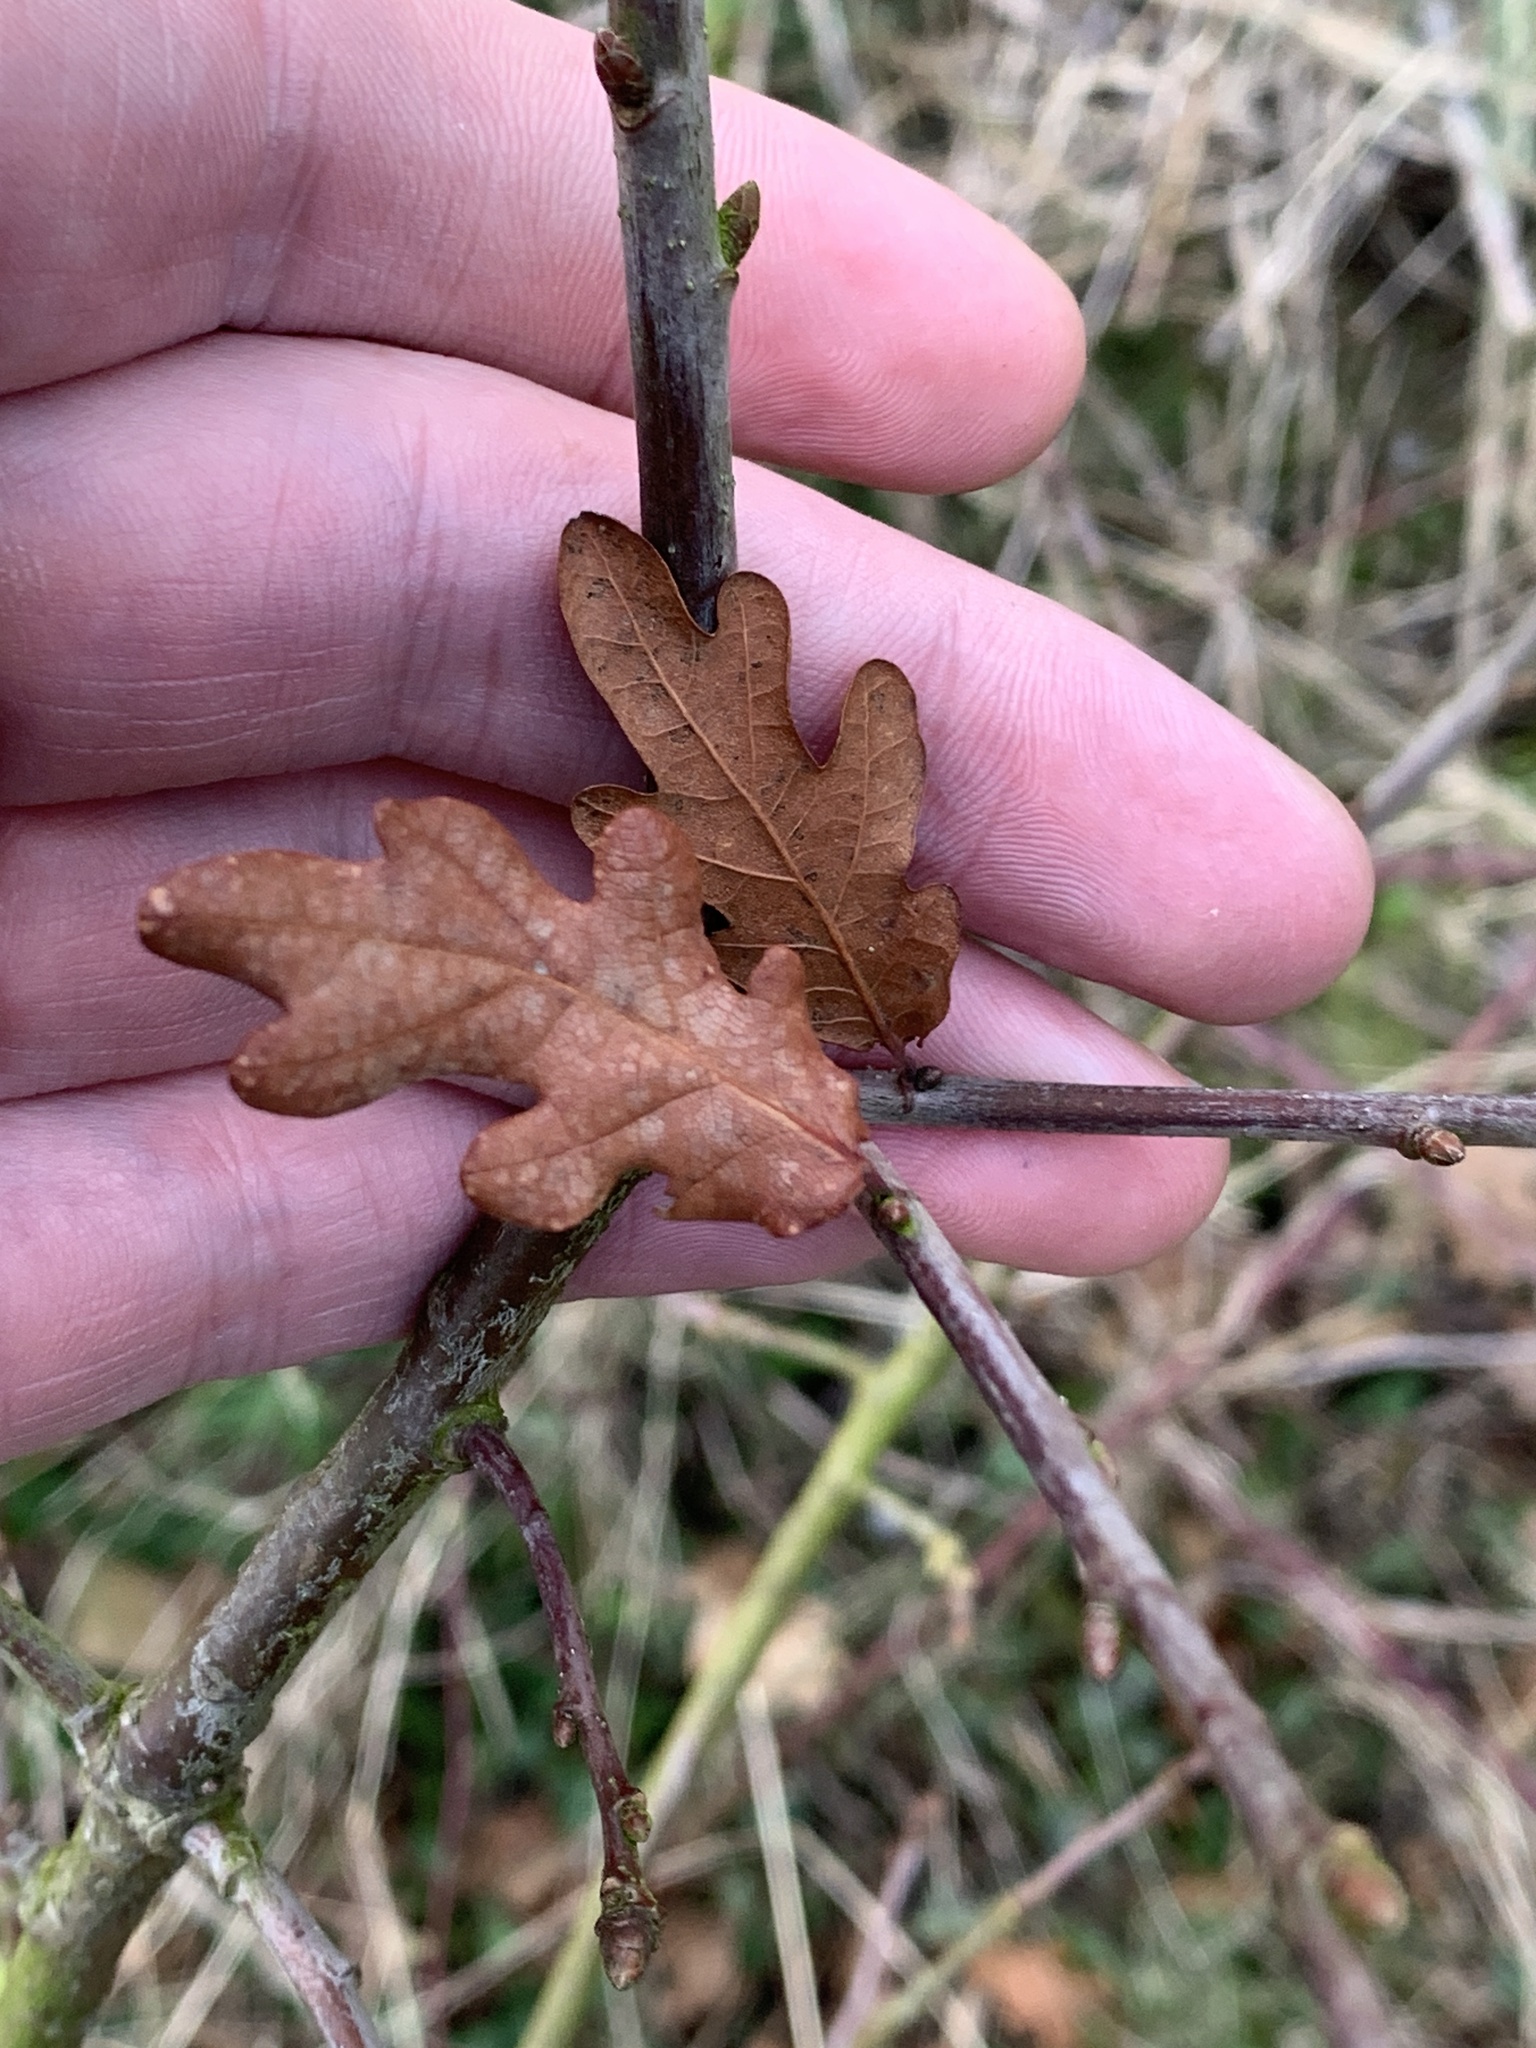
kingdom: Plantae
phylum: Tracheophyta
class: Magnoliopsida
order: Fagales
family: Fagaceae
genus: Quercus
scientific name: Quercus robur
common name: Pedunculate oak
